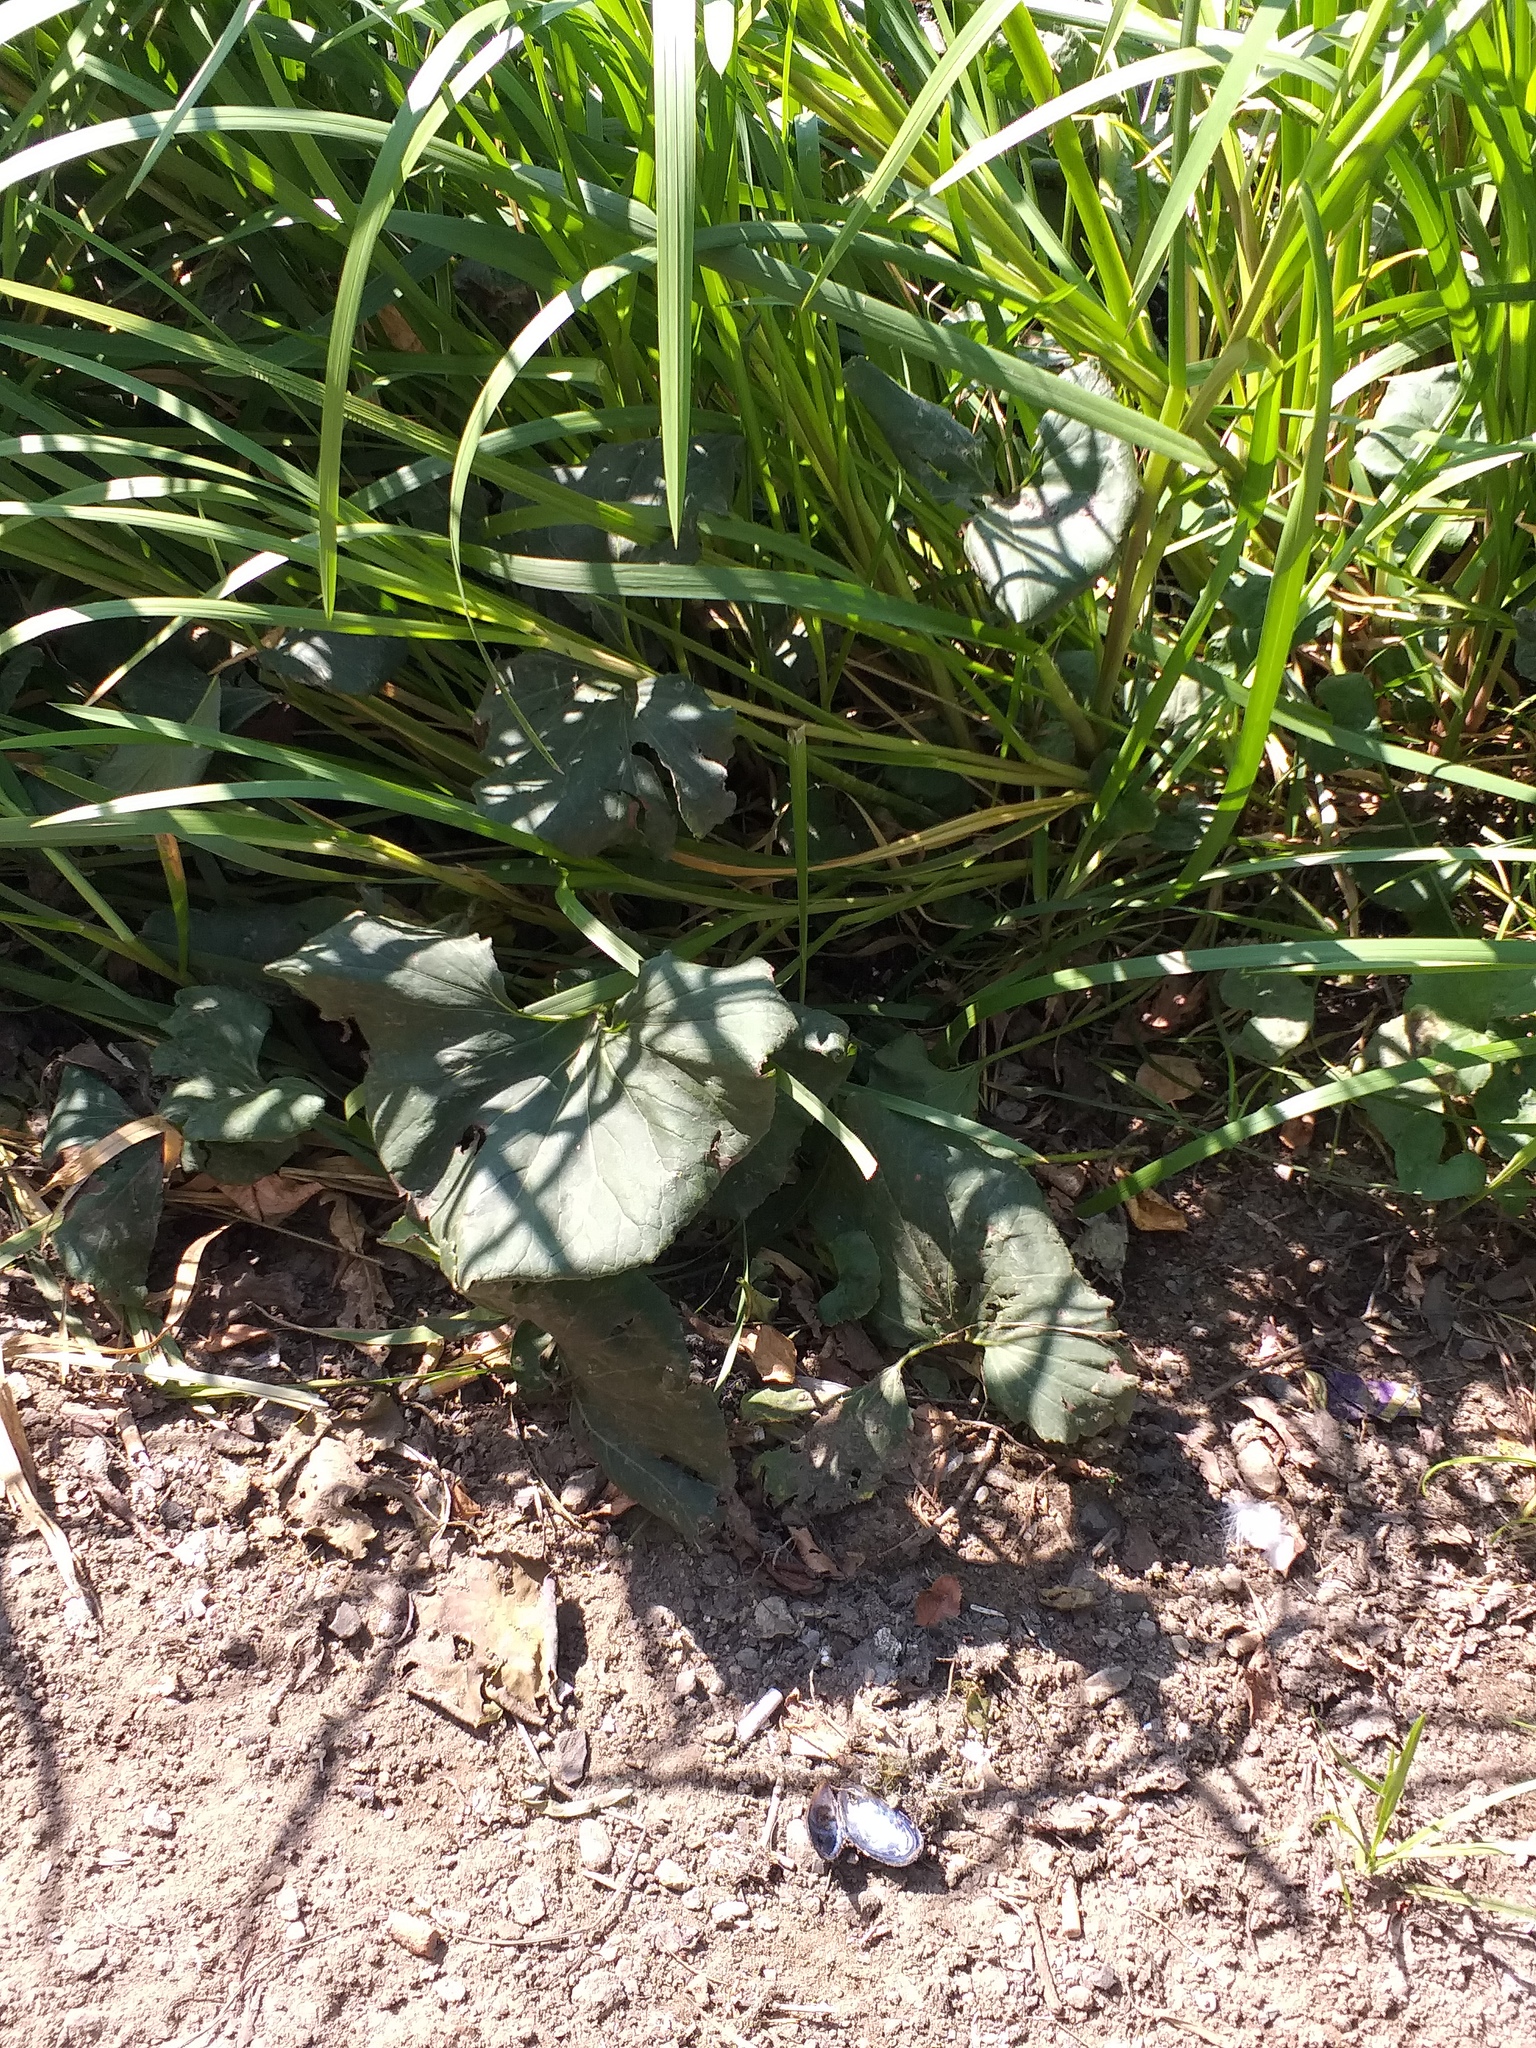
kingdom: Plantae
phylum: Tracheophyta
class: Magnoliopsida
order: Asterales
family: Asteraceae
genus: Petasites
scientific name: Petasites spurius
